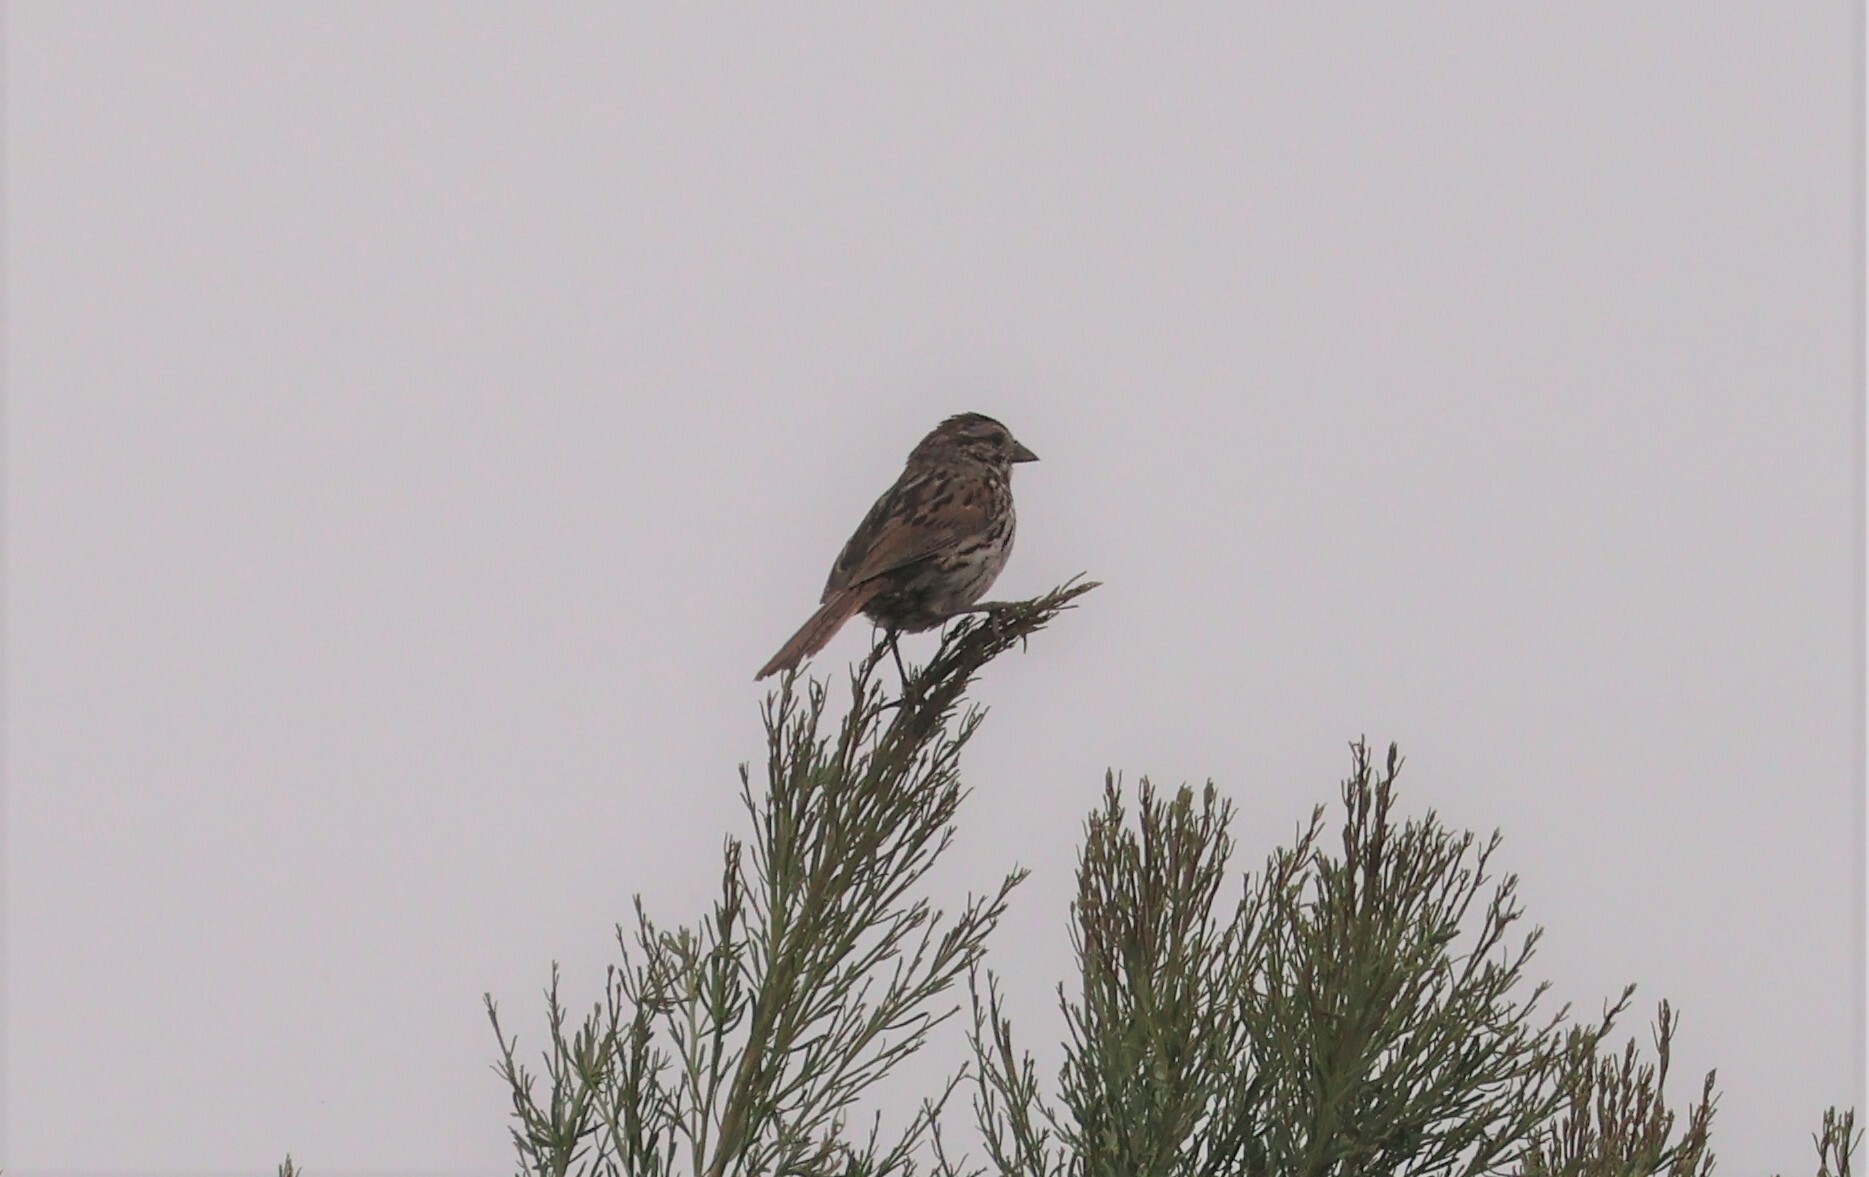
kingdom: Animalia
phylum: Chordata
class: Aves
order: Passeriformes
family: Passerellidae
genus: Melospiza
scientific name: Melospiza melodia
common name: Song sparrow
